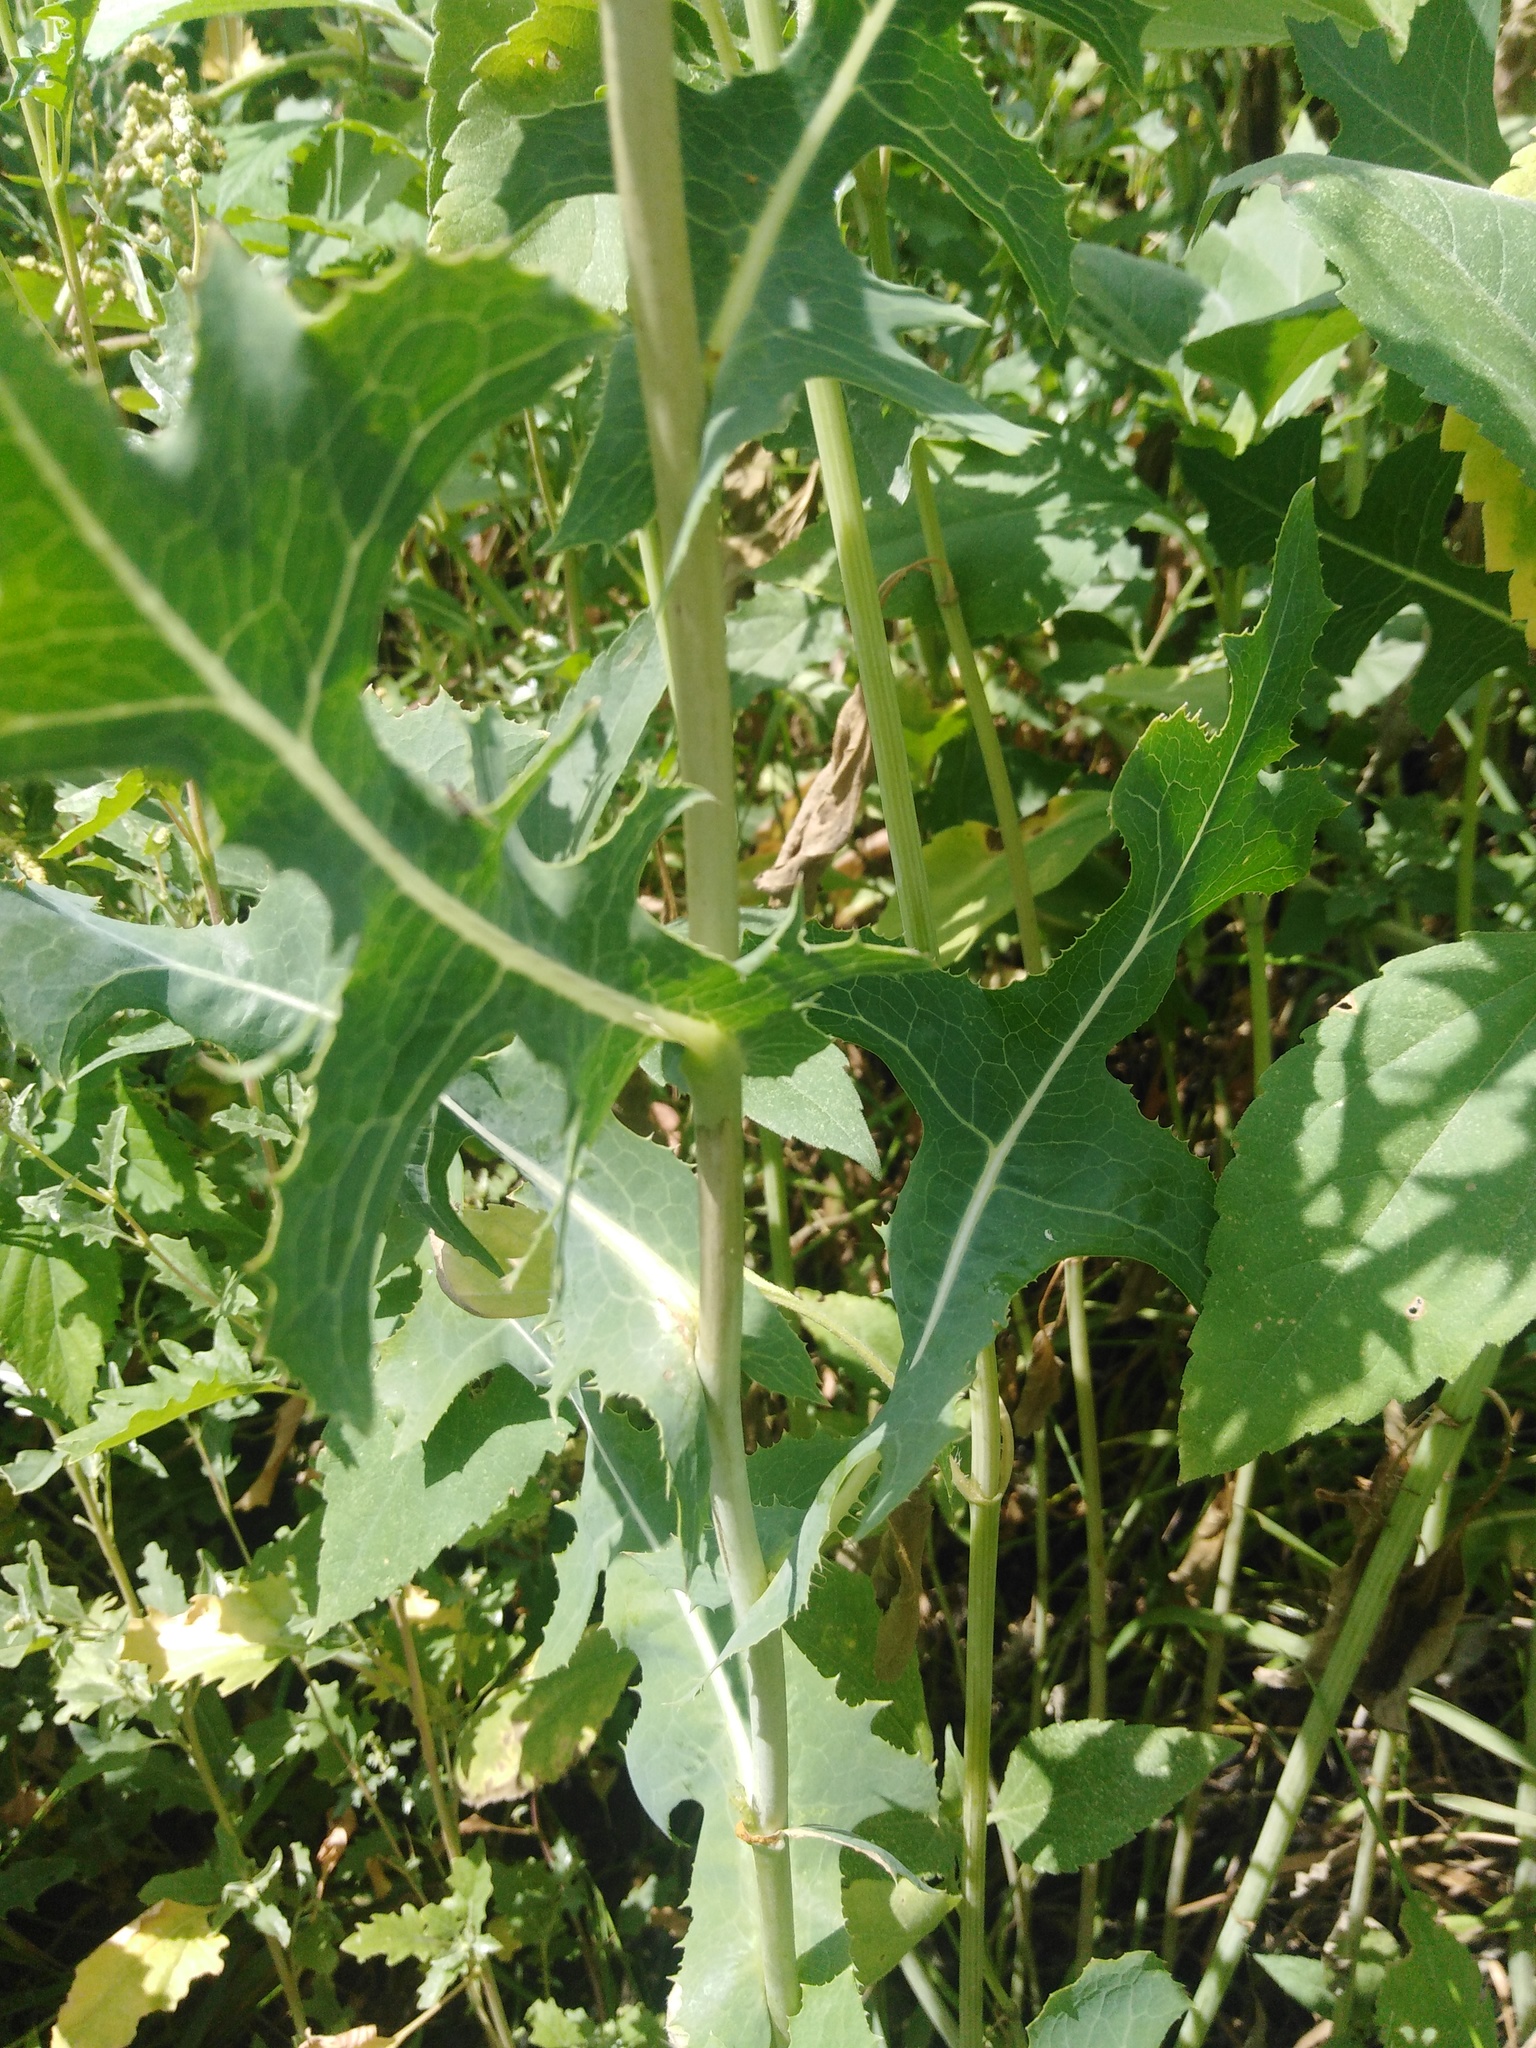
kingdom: Plantae
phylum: Tracheophyta
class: Magnoliopsida
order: Asterales
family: Asteraceae
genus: Lactuca
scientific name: Lactuca serriola
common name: Prickly lettuce
